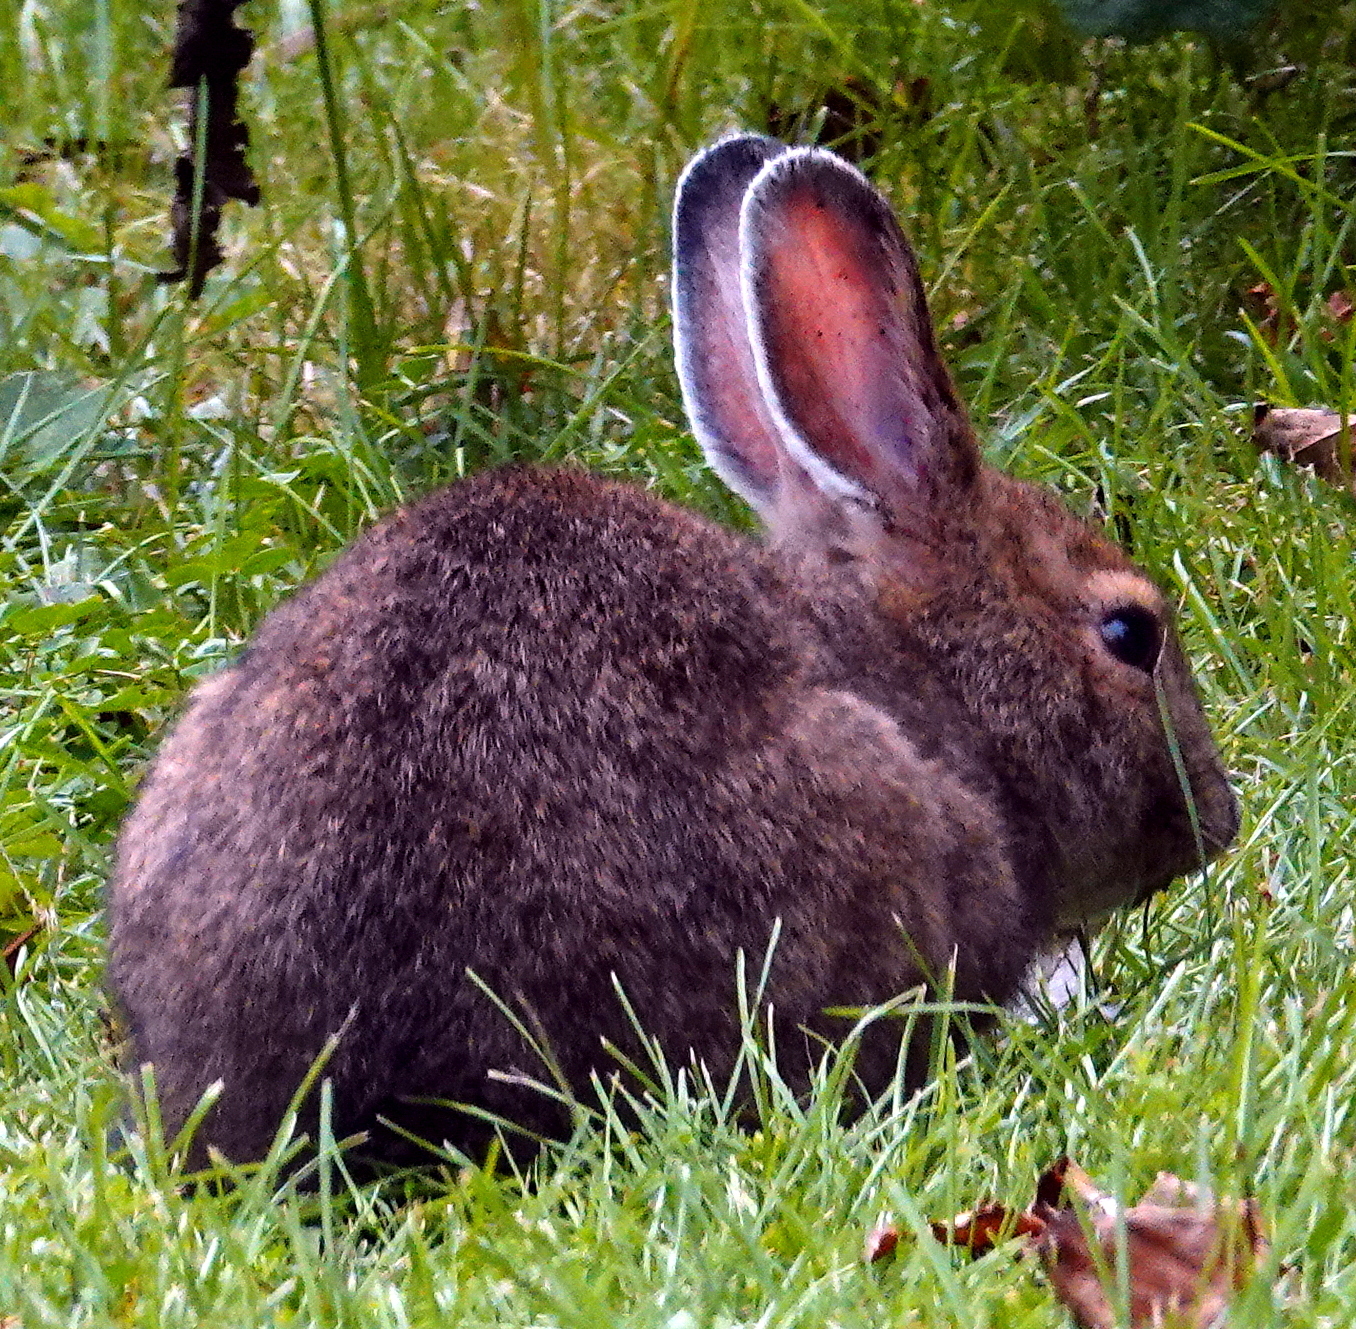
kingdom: Animalia
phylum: Chordata
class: Mammalia
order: Lagomorpha
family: Leporidae
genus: Lepus
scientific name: Lepus americanus
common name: Snowshoe hare
